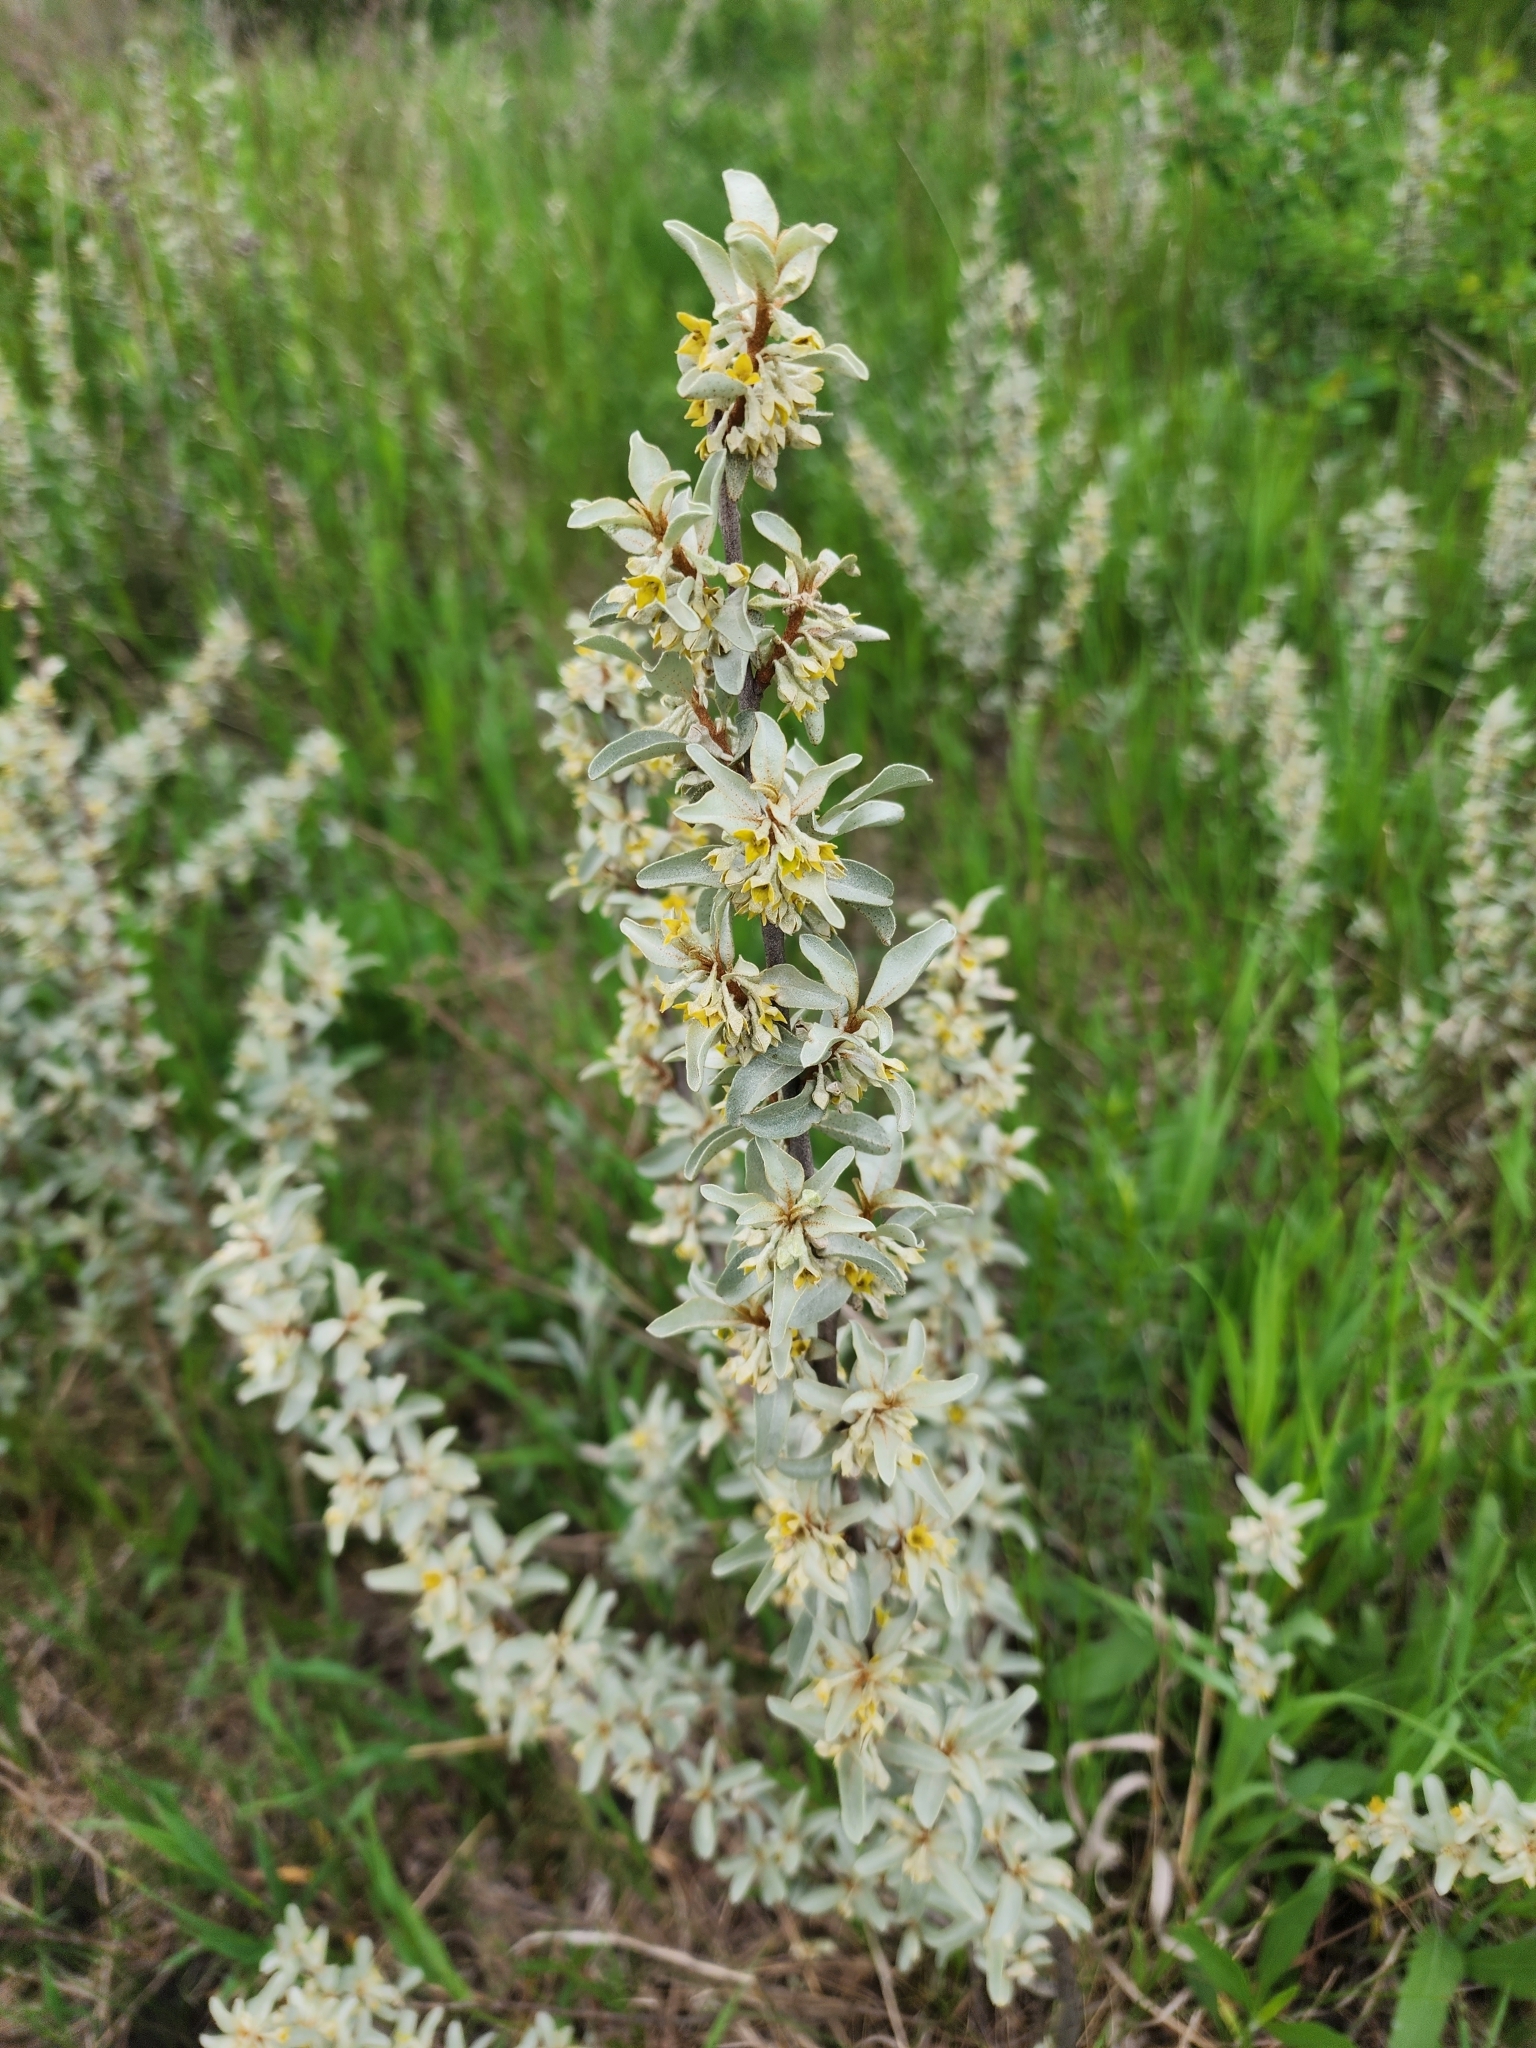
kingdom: Plantae
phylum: Tracheophyta
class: Magnoliopsida
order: Rosales
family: Elaeagnaceae
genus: Elaeagnus
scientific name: Elaeagnus commutata
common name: Silverberry
